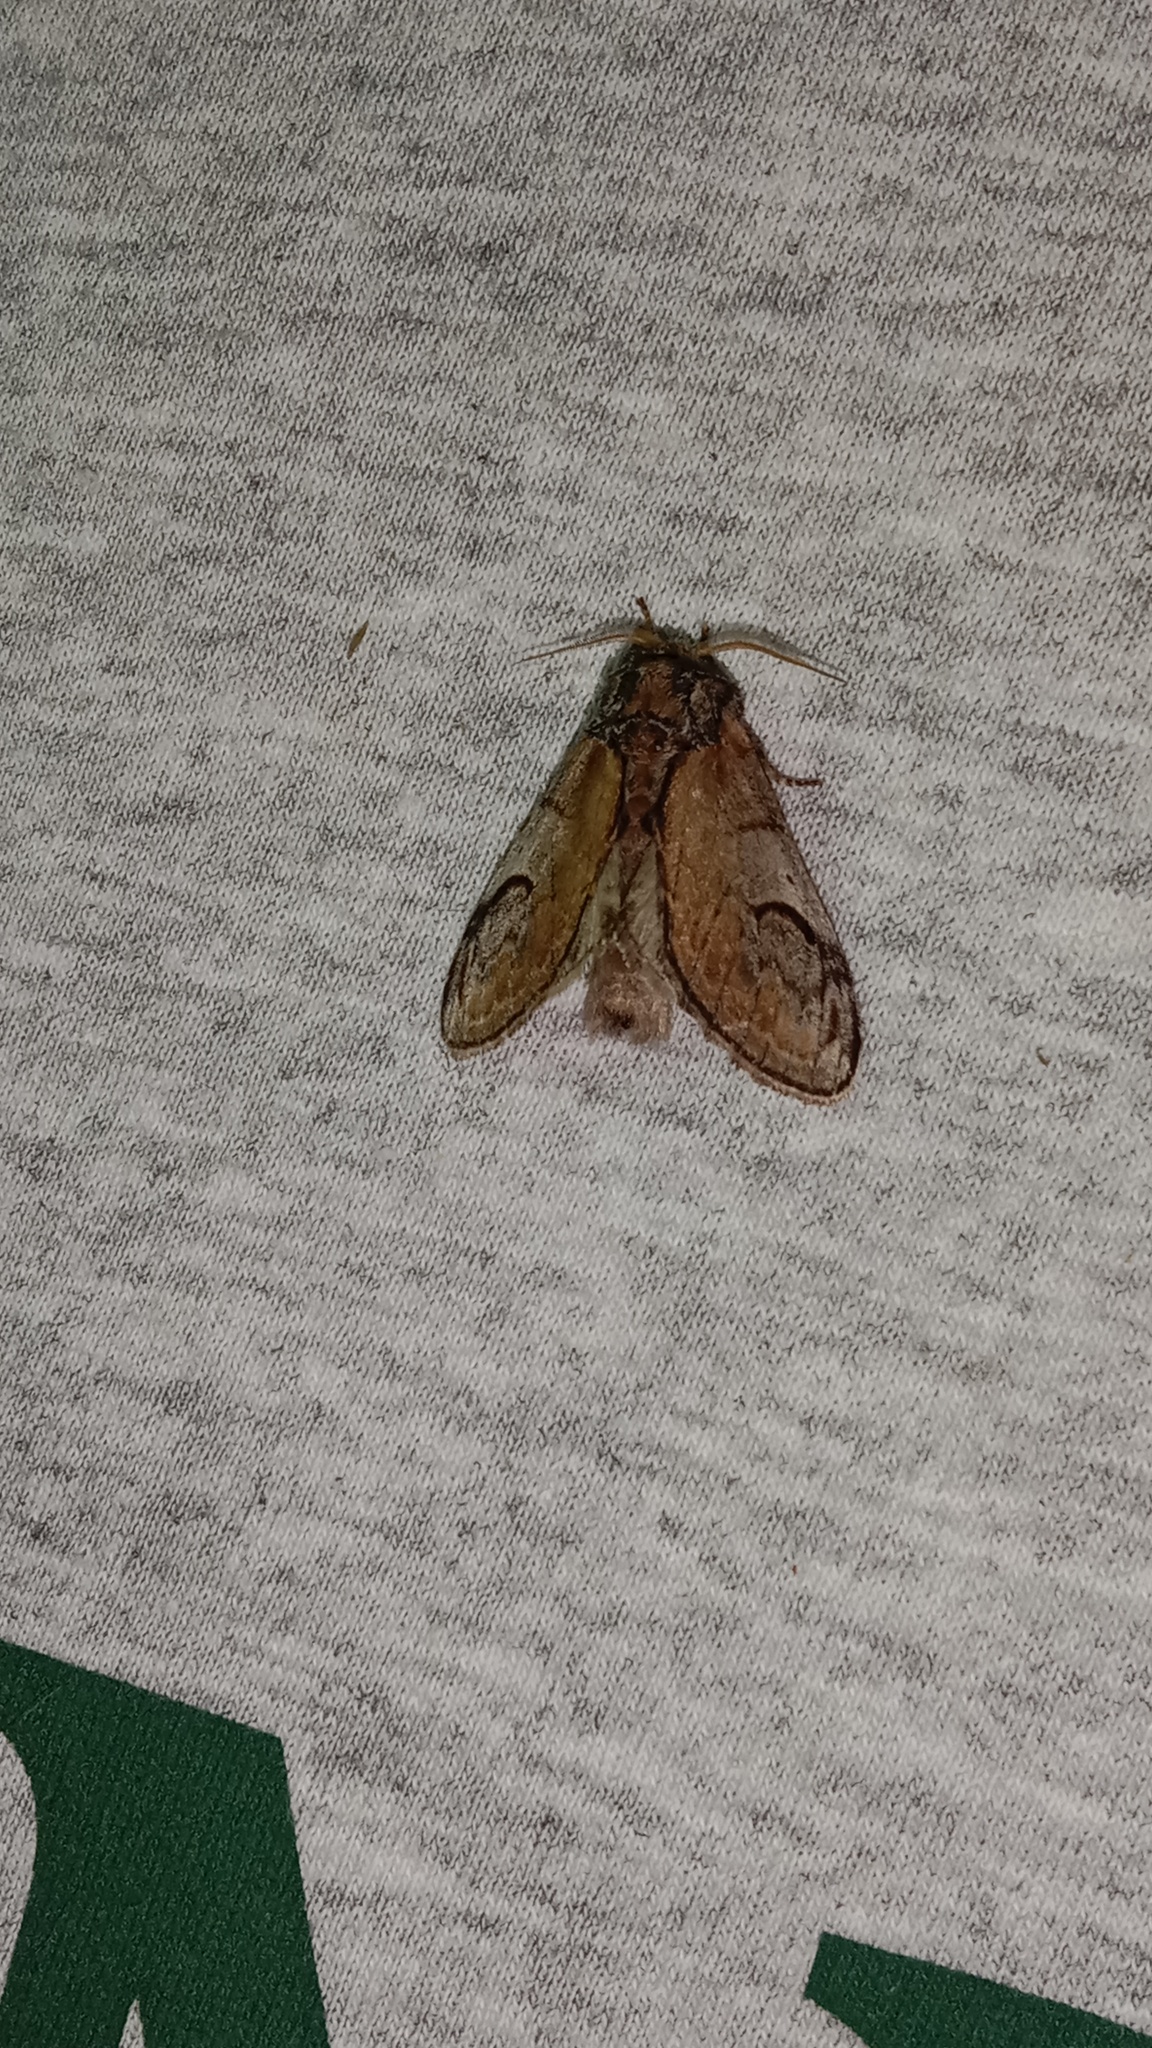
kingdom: Animalia
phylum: Arthropoda
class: Insecta
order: Lepidoptera
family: Notodontidae
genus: Notodonta
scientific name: Notodonta ziczac
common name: Pebble prominent
